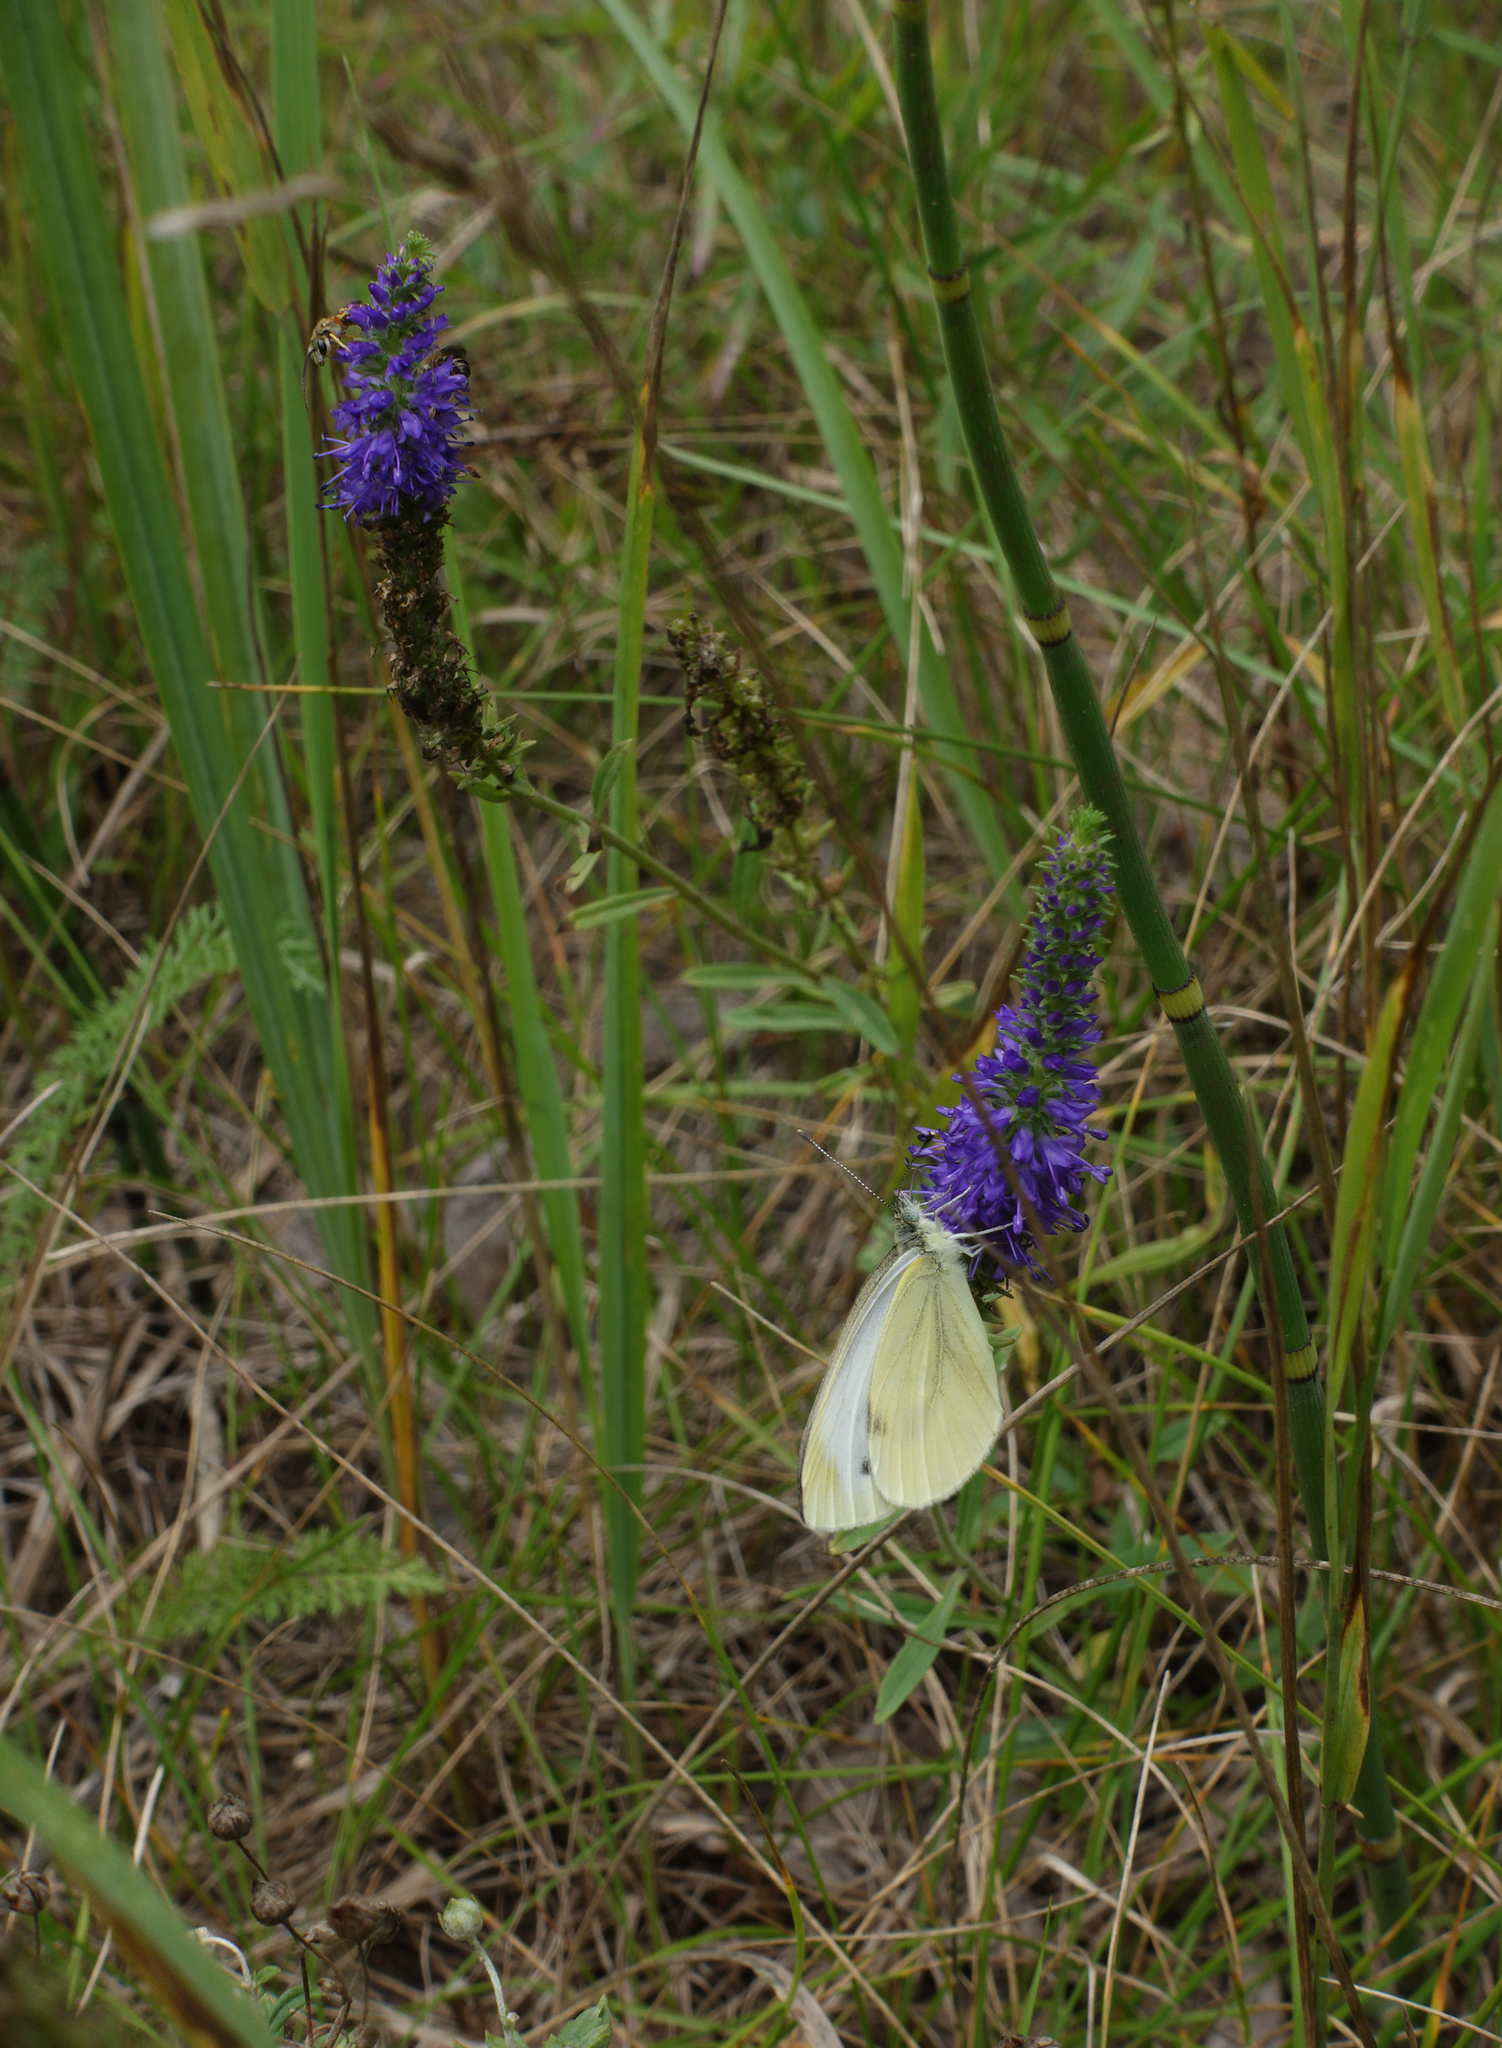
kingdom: Plantae
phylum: Tracheophyta
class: Magnoliopsida
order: Lamiales
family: Plantaginaceae
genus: Veronica
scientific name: Veronica spicata
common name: Spiked speedwell
